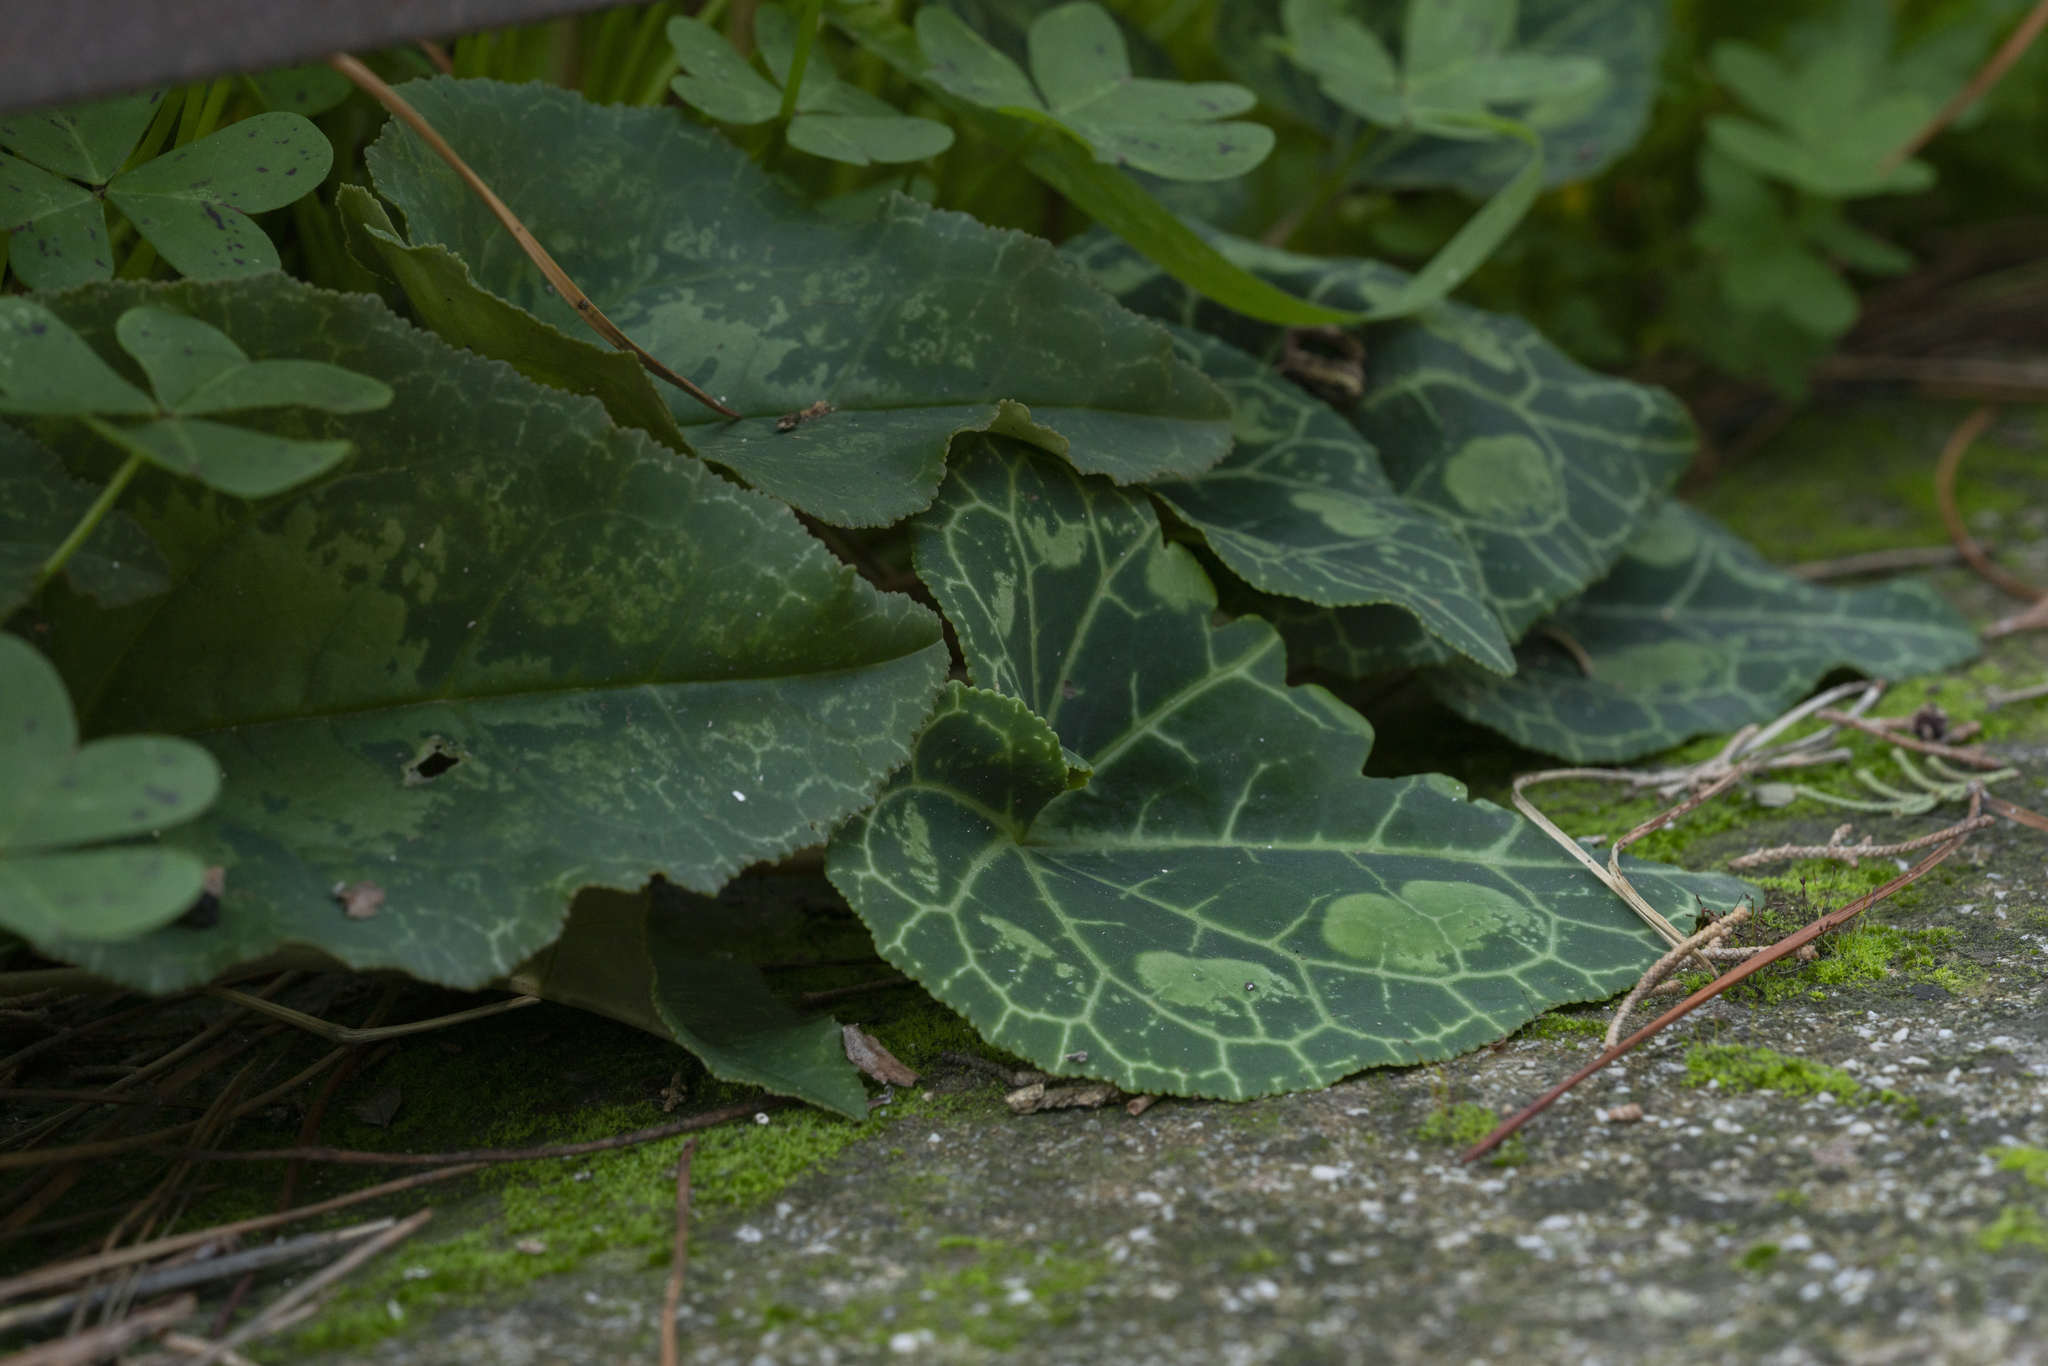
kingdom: Plantae
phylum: Tracheophyta
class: Magnoliopsida
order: Ericales
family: Primulaceae
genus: Cyclamen
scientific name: Cyclamen persicum
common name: Florist's cyclamen
